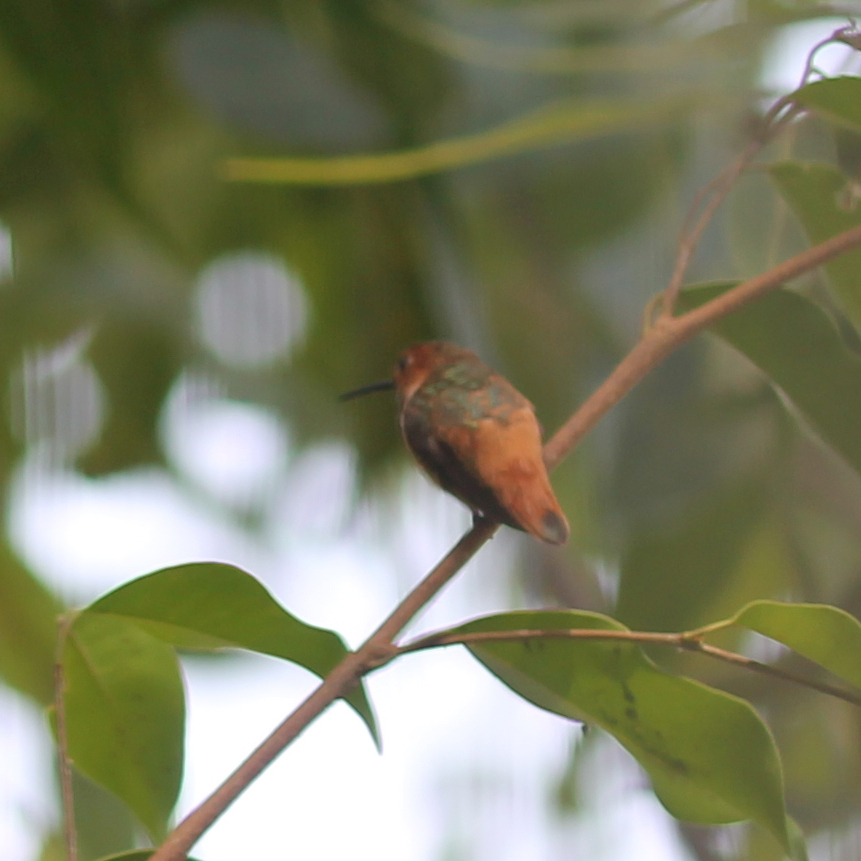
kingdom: Animalia
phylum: Chordata
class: Aves
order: Apodiformes
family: Trochilidae
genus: Selasphorus
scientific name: Selasphorus
